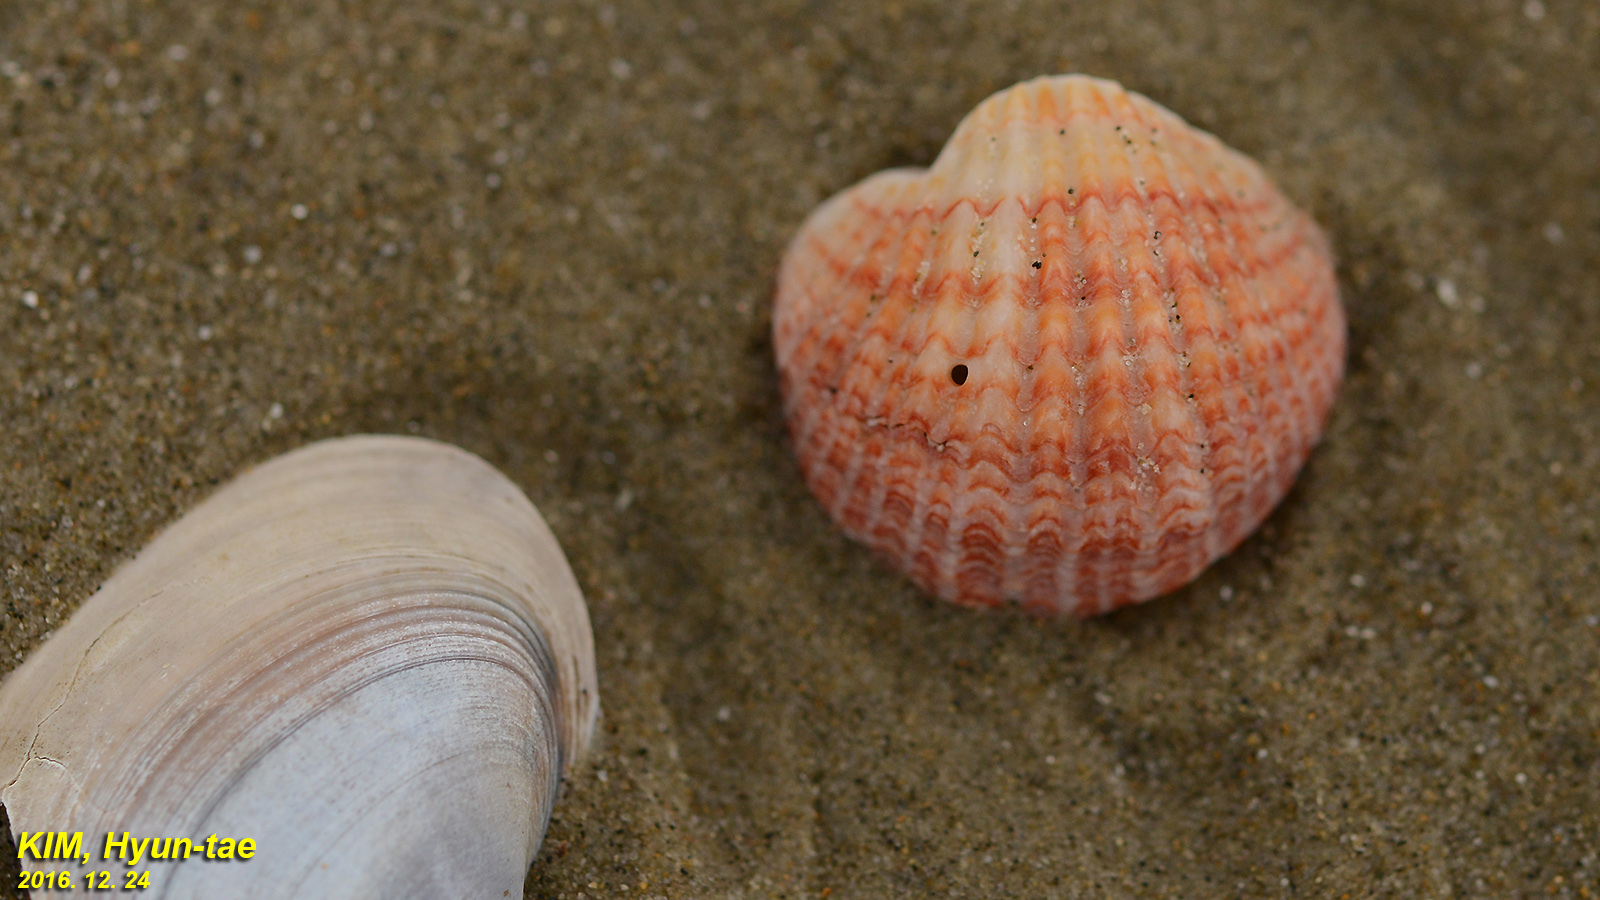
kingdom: Animalia
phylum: Brachiopoda
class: Rhynchonellata
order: Terebratulida
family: Terebrataliidae
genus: Coptothyris
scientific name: Coptothyris grayi
